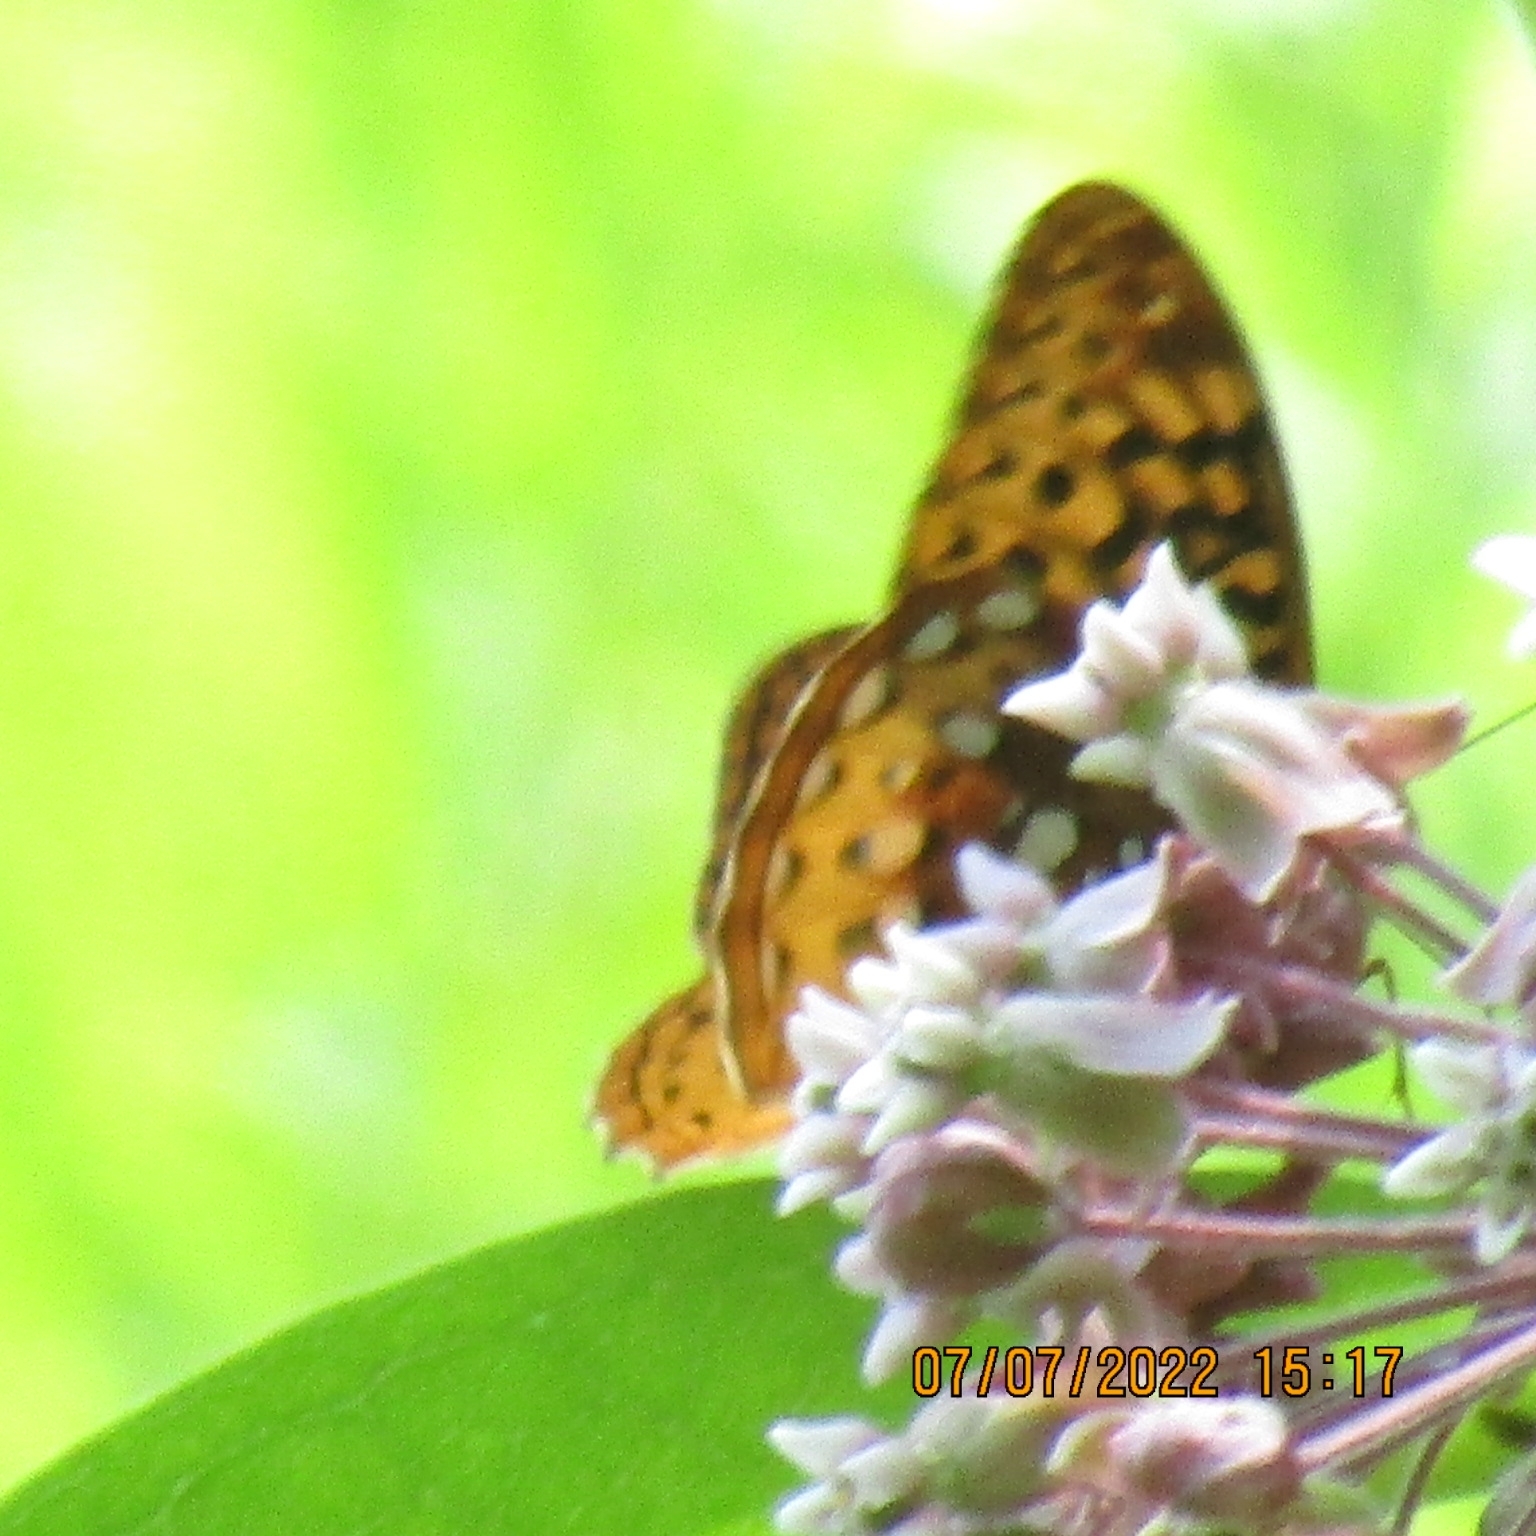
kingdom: Animalia
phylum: Arthropoda
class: Insecta
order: Lepidoptera
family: Nymphalidae
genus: Speyeria
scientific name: Speyeria cybele
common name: Great spangled fritillary
